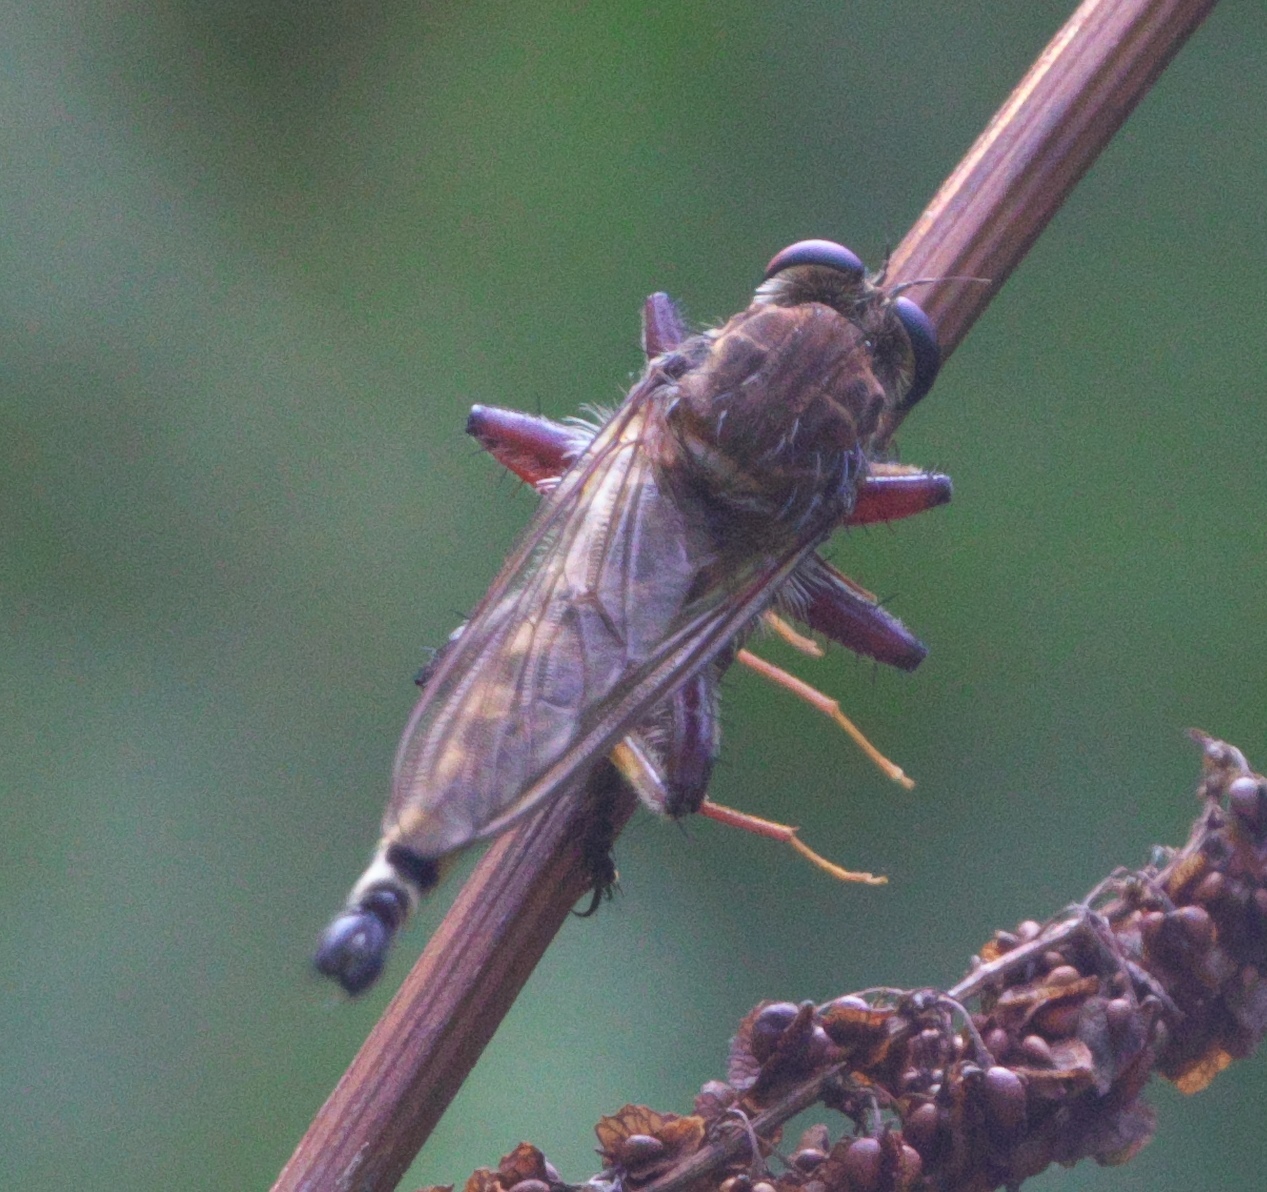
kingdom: Animalia
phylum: Arthropoda
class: Insecta
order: Diptera
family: Asilidae
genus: Promachus
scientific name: Promachus hinei
